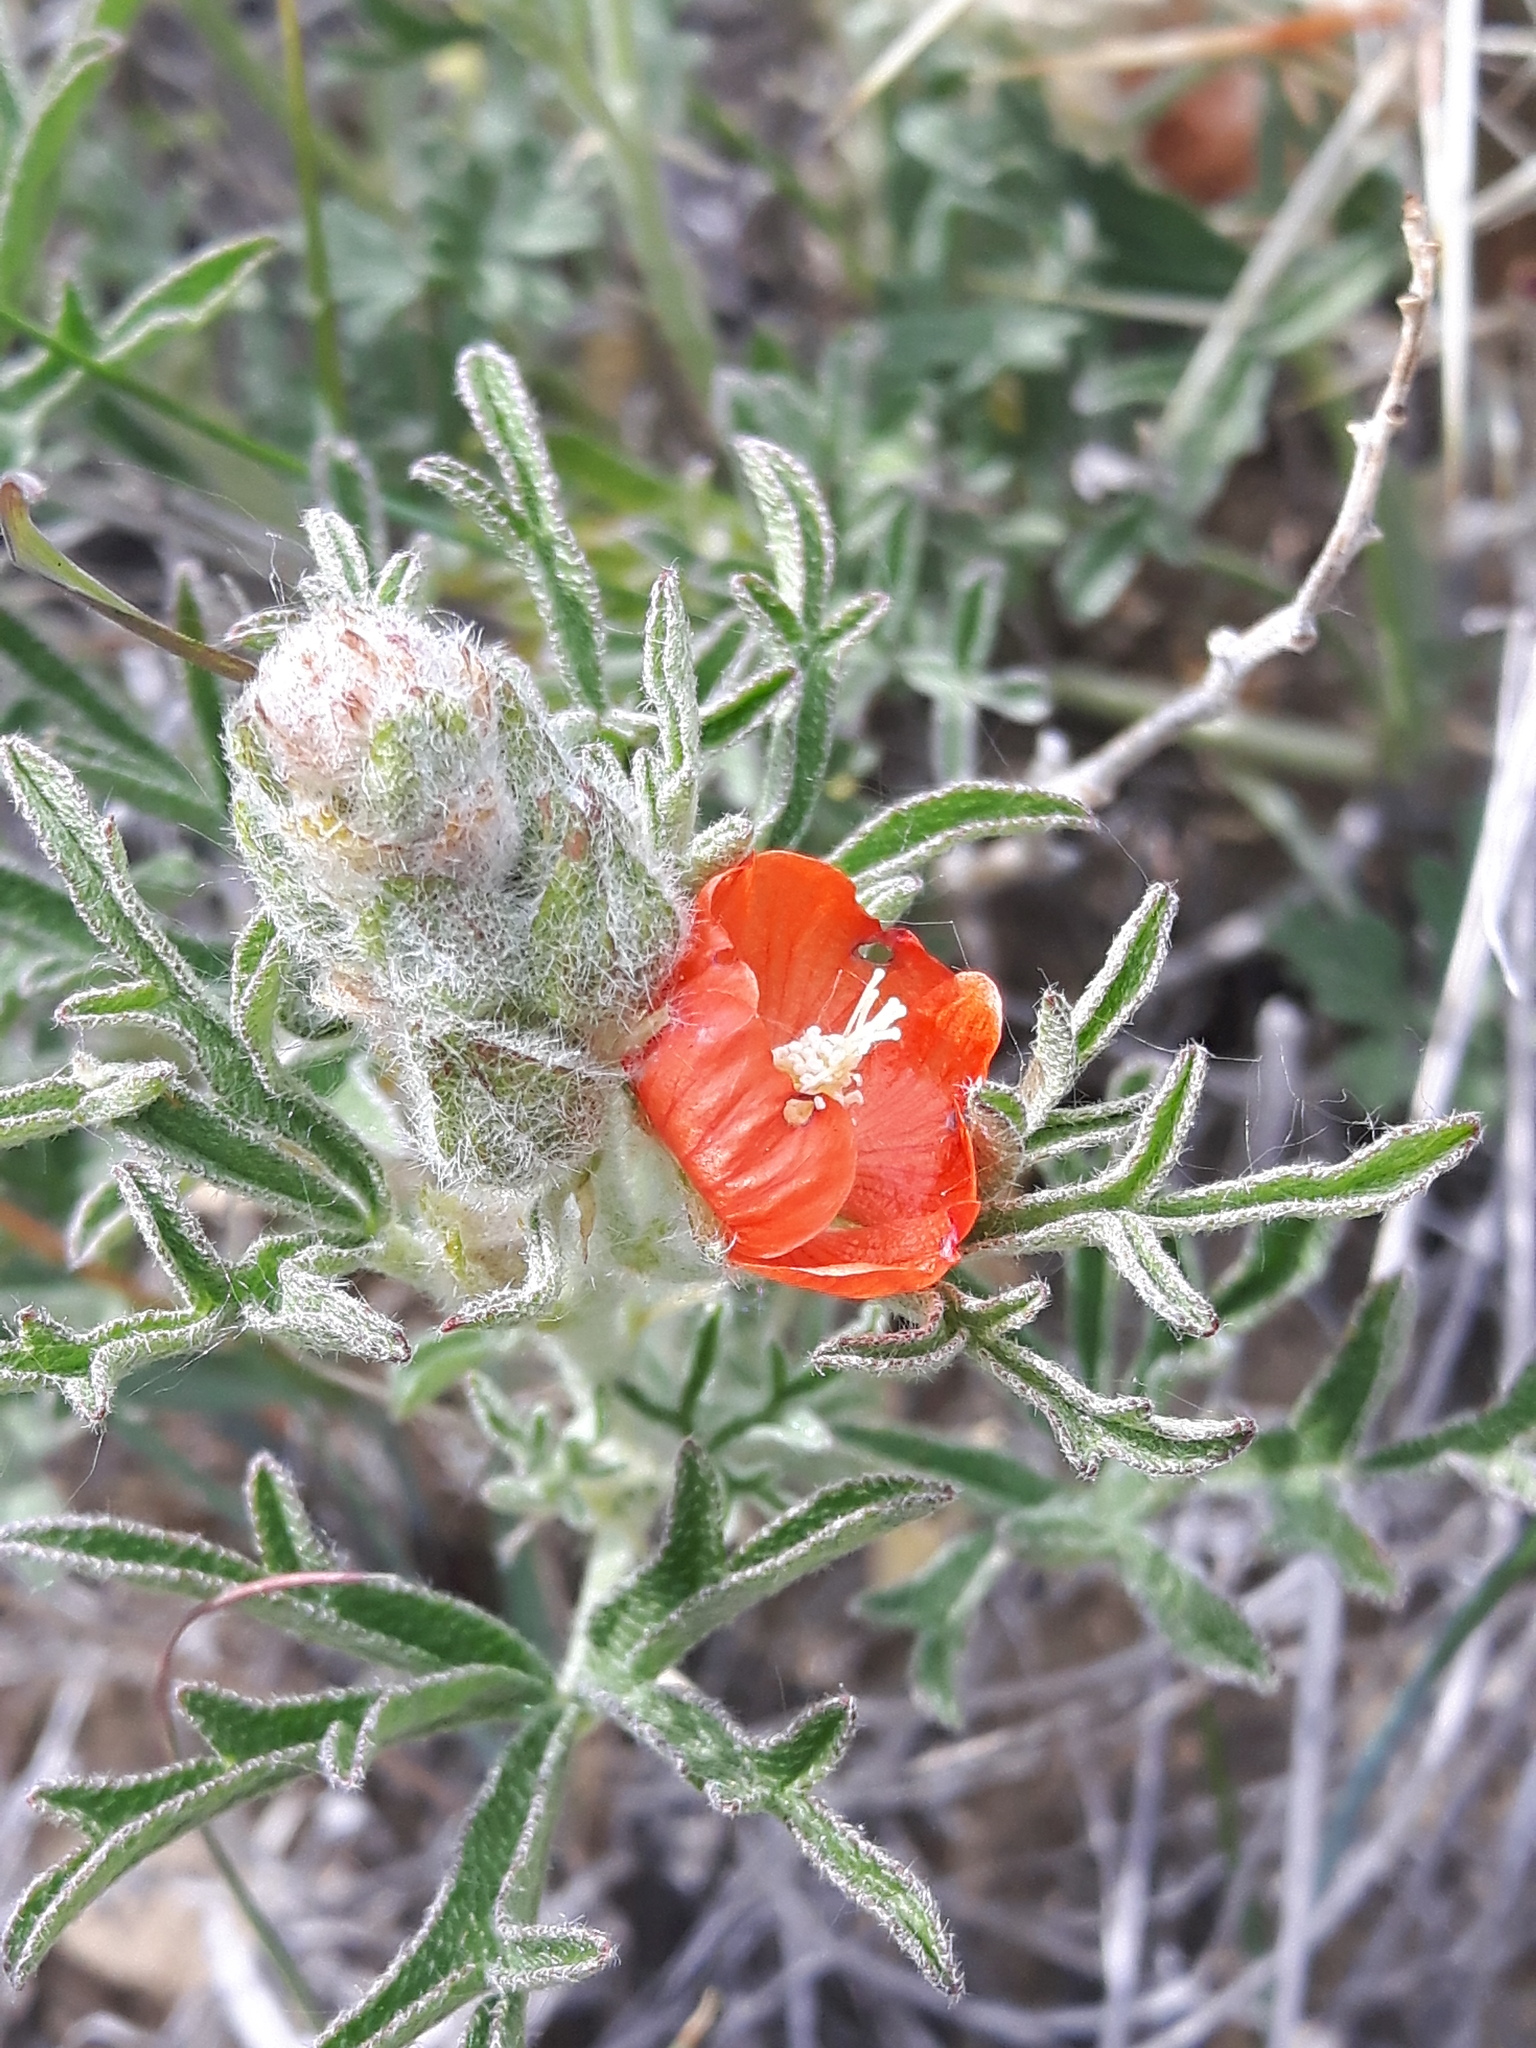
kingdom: Plantae
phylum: Tracheophyta
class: Magnoliopsida
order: Malvales
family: Malvaceae
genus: Sphaeralcea
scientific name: Sphaeralcea coccinea
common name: Moss-rose
